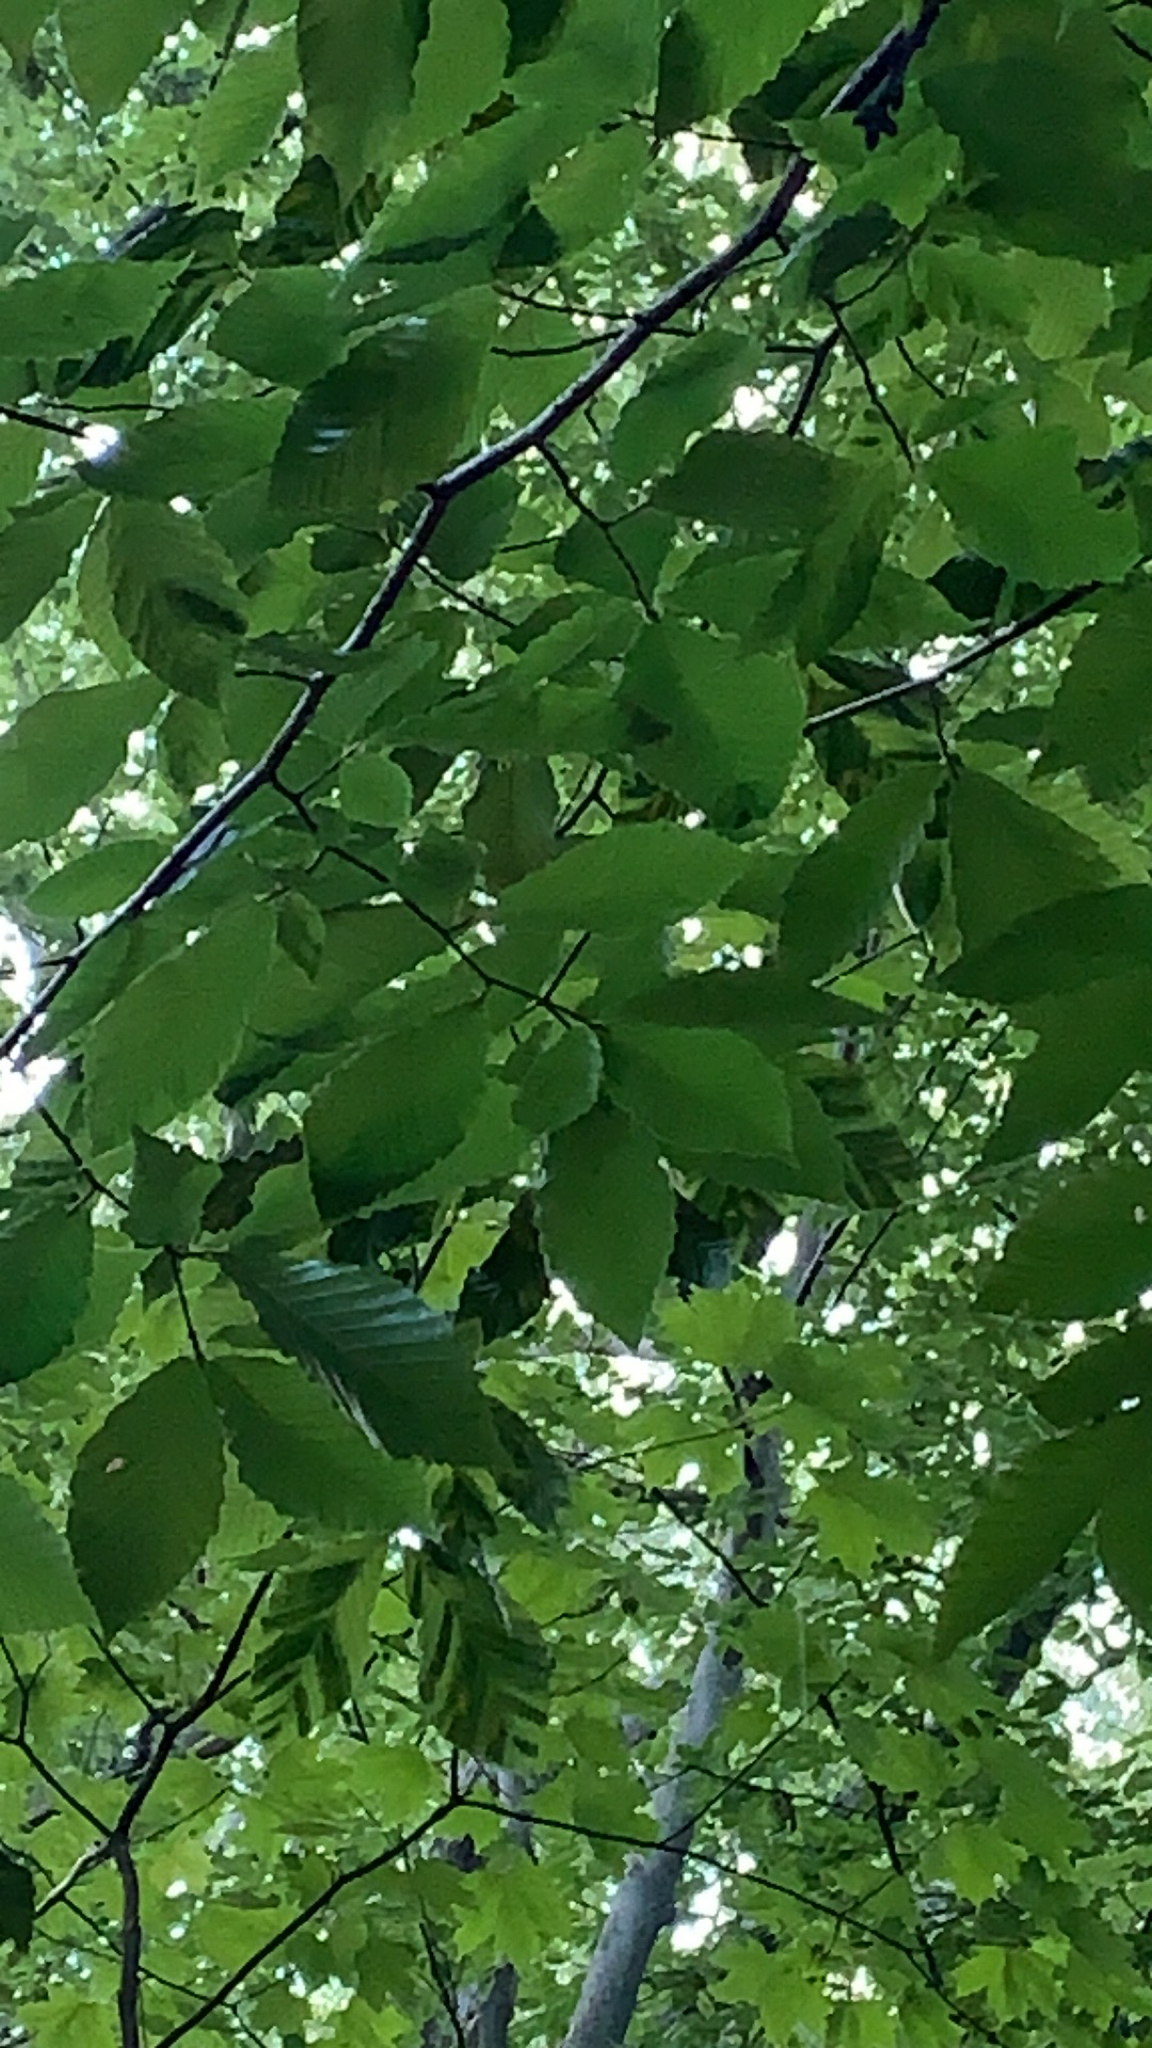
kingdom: Plantae
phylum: Tracheophyta
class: Magnoliopsida
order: Fagales
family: Fagaceae
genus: Fagus
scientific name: Fagus grandifolia
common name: American beech
